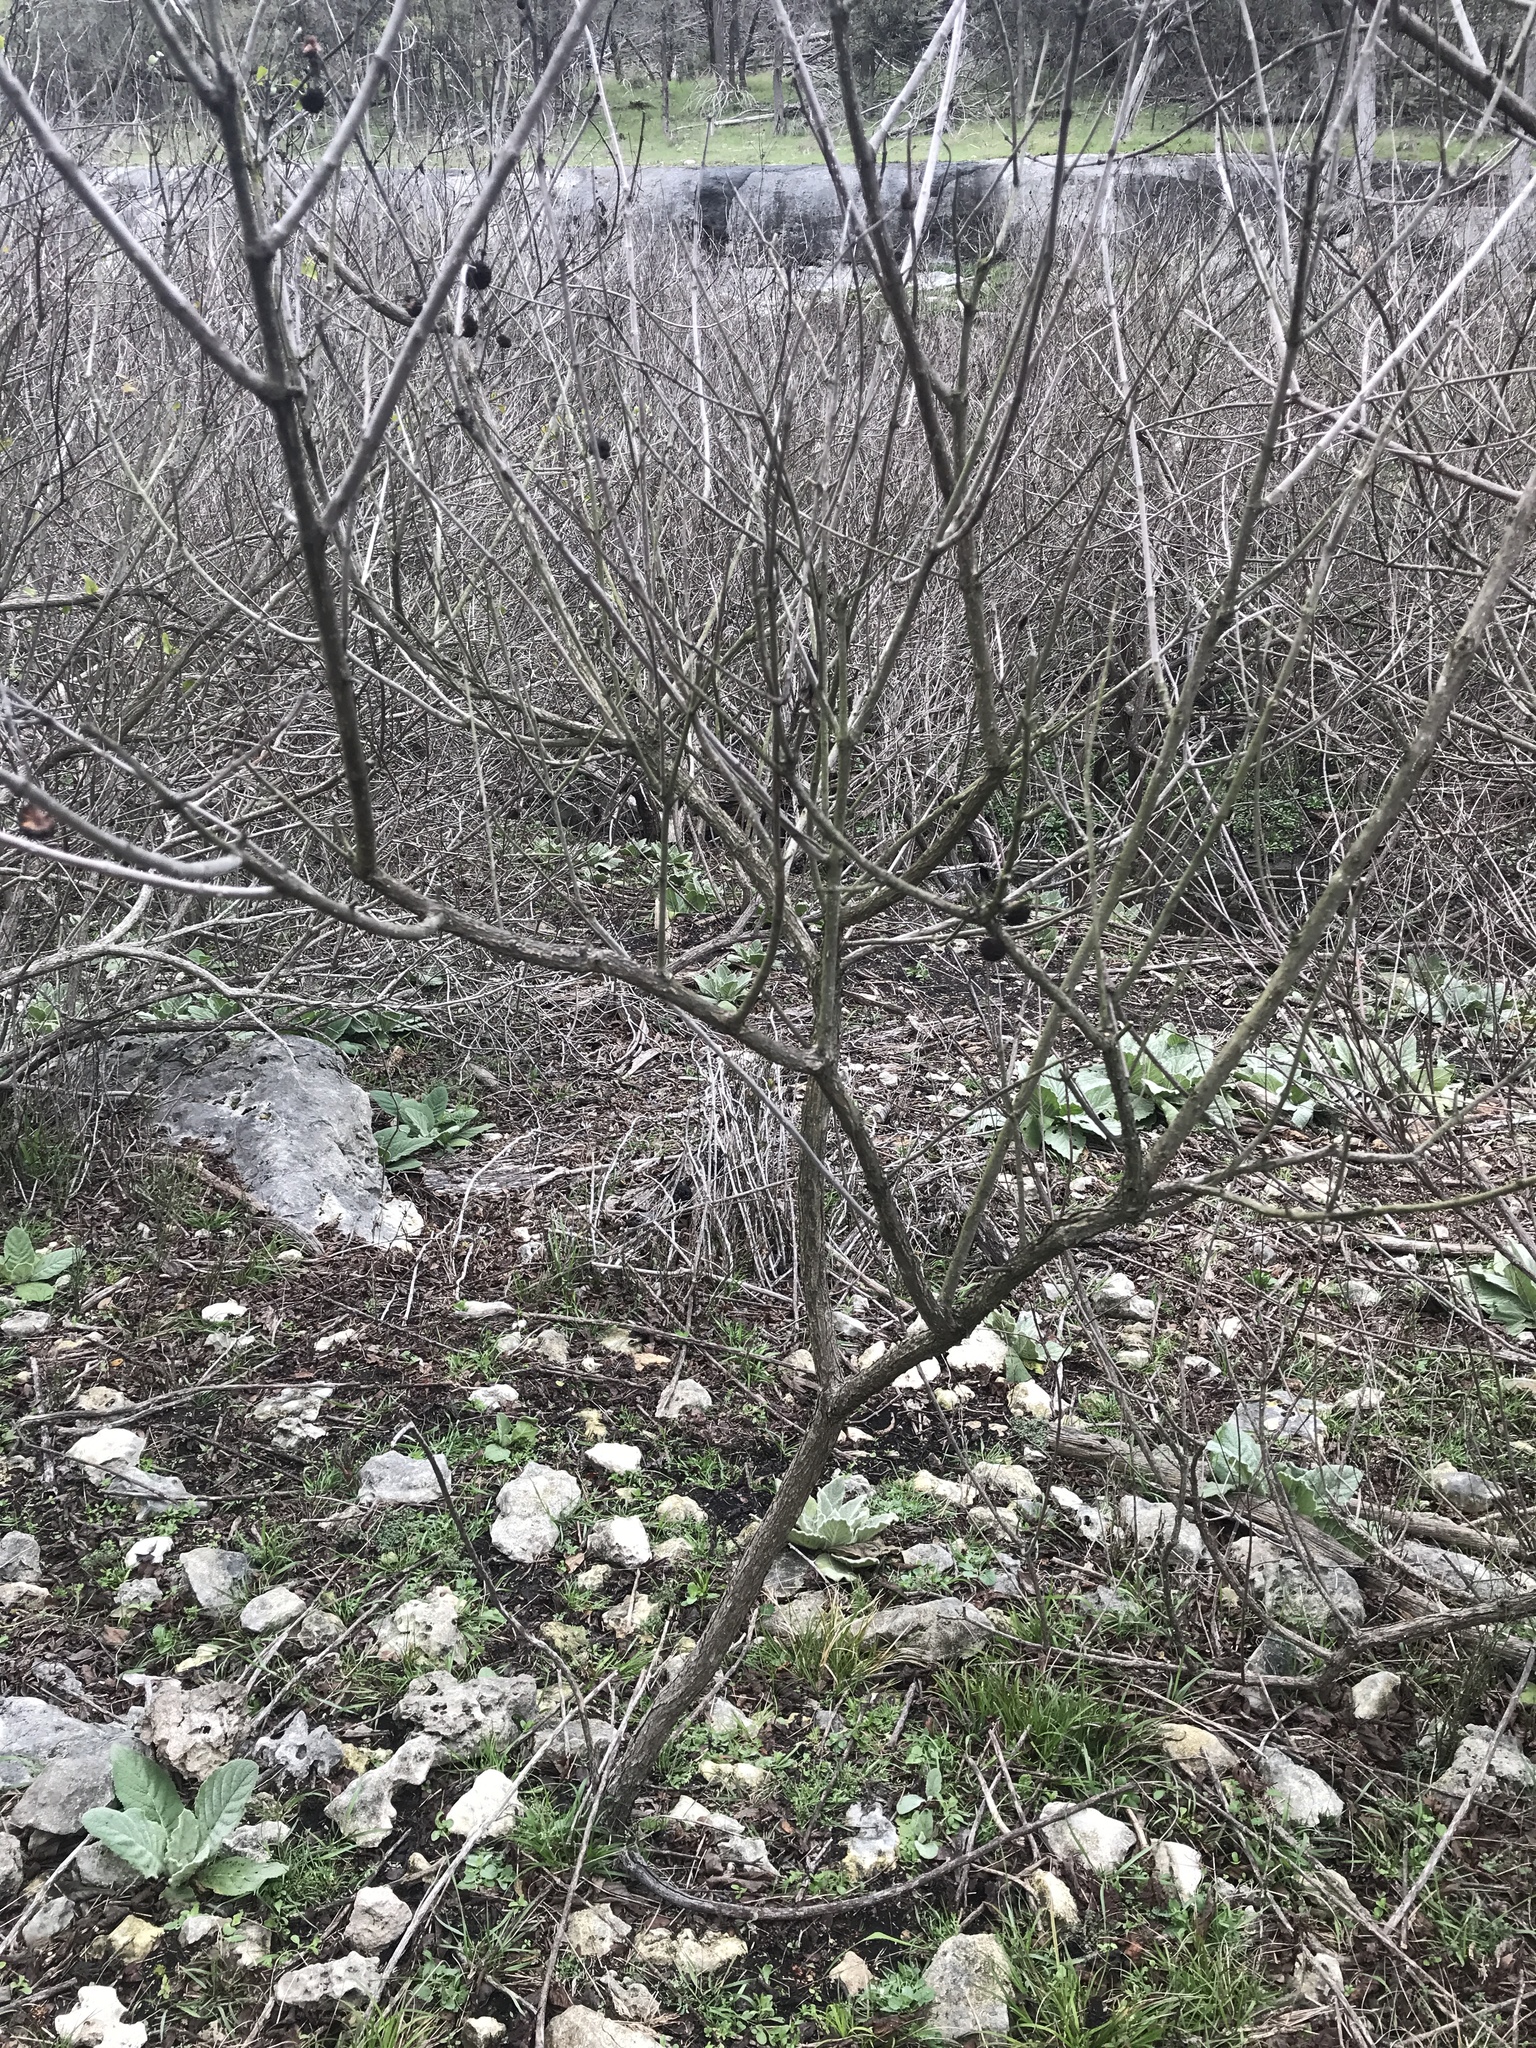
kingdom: Plantae
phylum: Tracheophyta
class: Magnoliopsida
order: Gentianales
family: Rubiaceae
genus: Cephalanthus
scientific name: Cephalanthus occidentalis
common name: Button-willow
